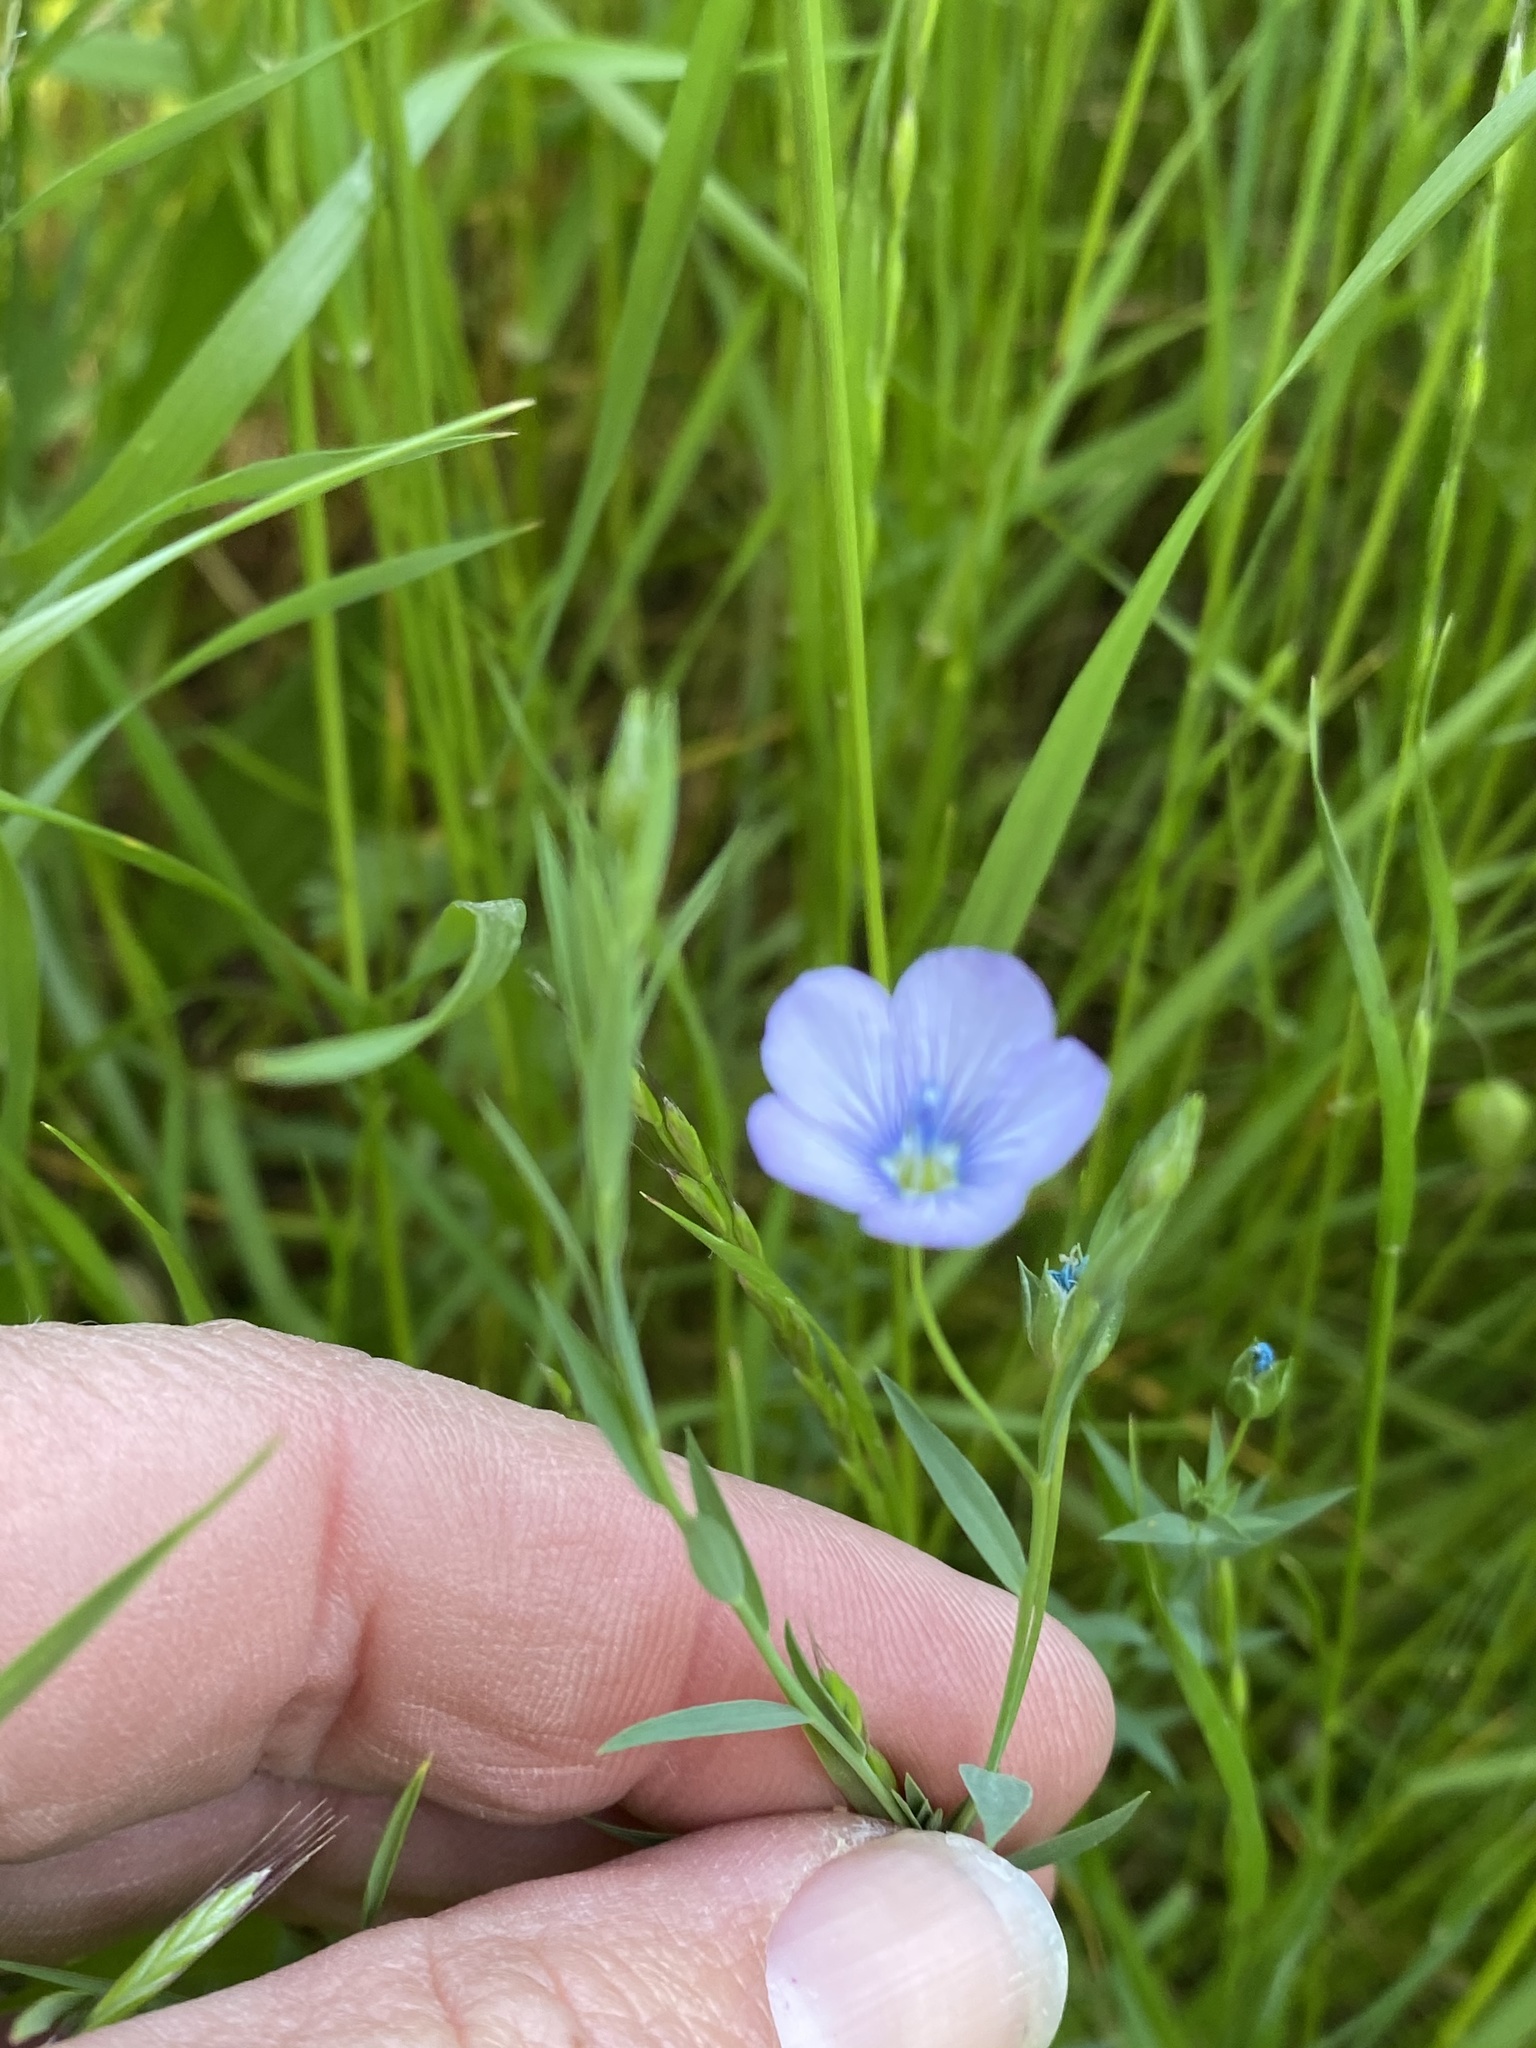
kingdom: Plantae
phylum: Tracheophyta
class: Magnoliopsida
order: Malpighiales
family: Linaceae
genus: Linum
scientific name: Linum bienne
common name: Pale flax
